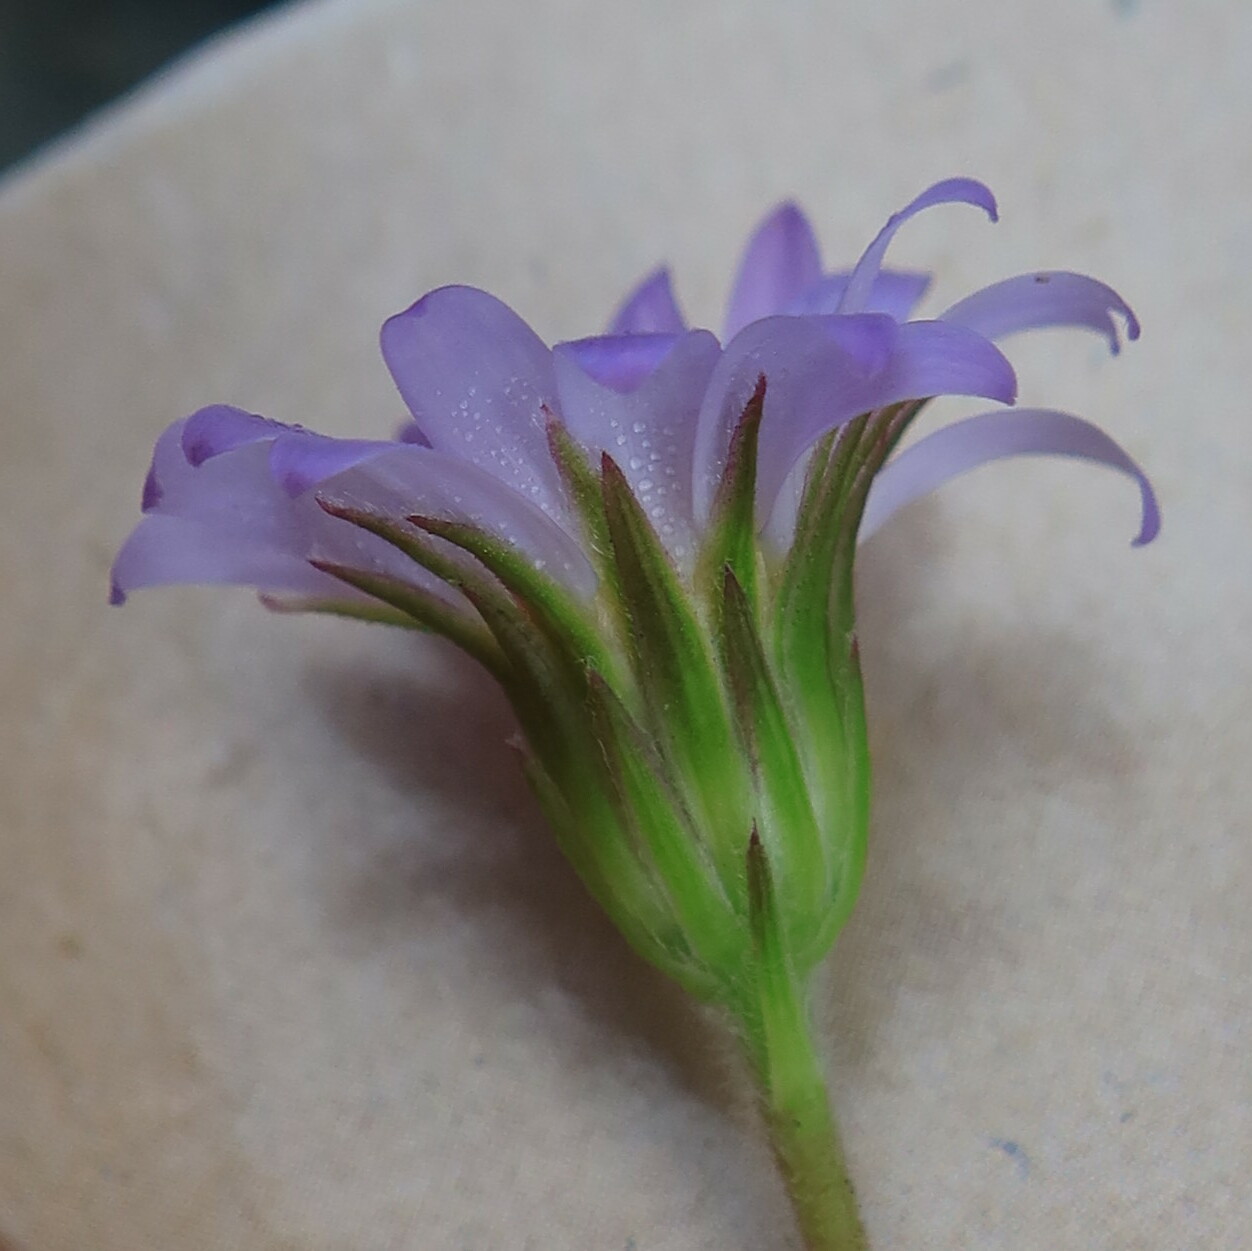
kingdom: Plantae
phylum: Tracheophyta
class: Magnoliopsida
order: Asterales
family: Asteraceae
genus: Zyrphelis
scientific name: Zyrphelis taxifolia
